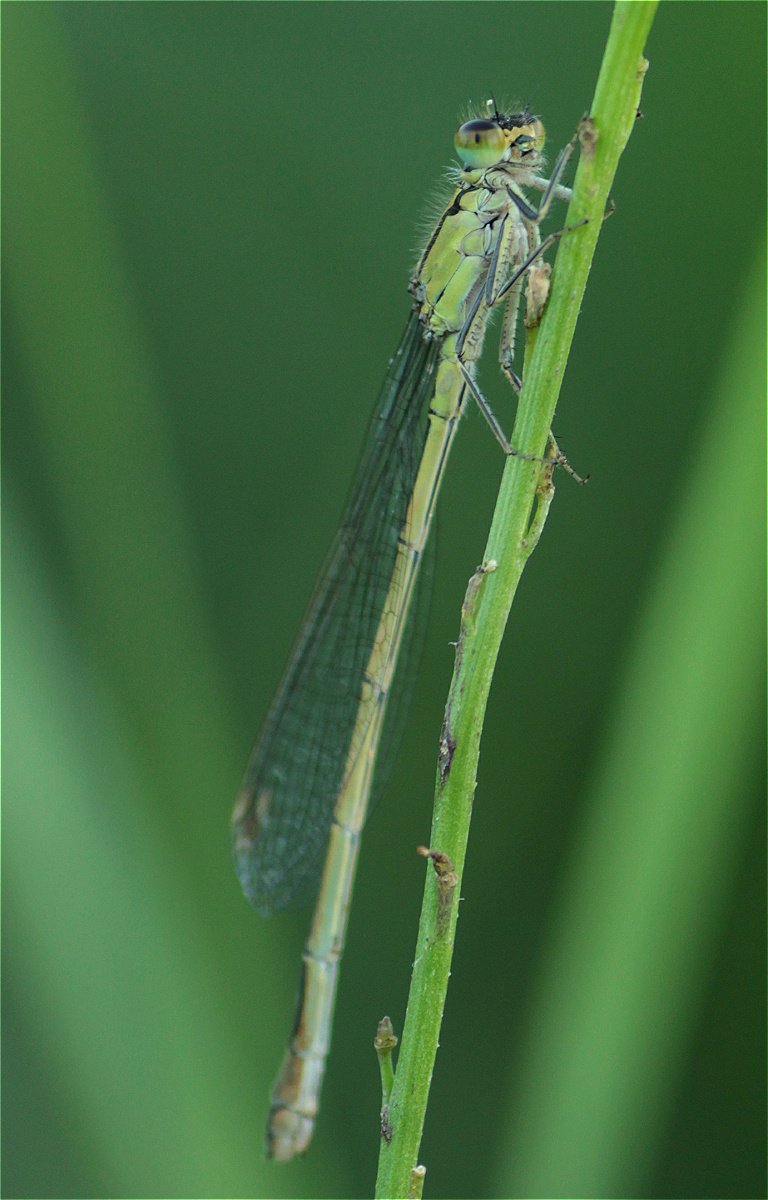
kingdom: Animalia
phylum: Arthropoda
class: Insecta
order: Odonata
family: Coenagrionidae
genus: Ischnura
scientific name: Ischnura elegans
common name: Blue-tailed damselfly
